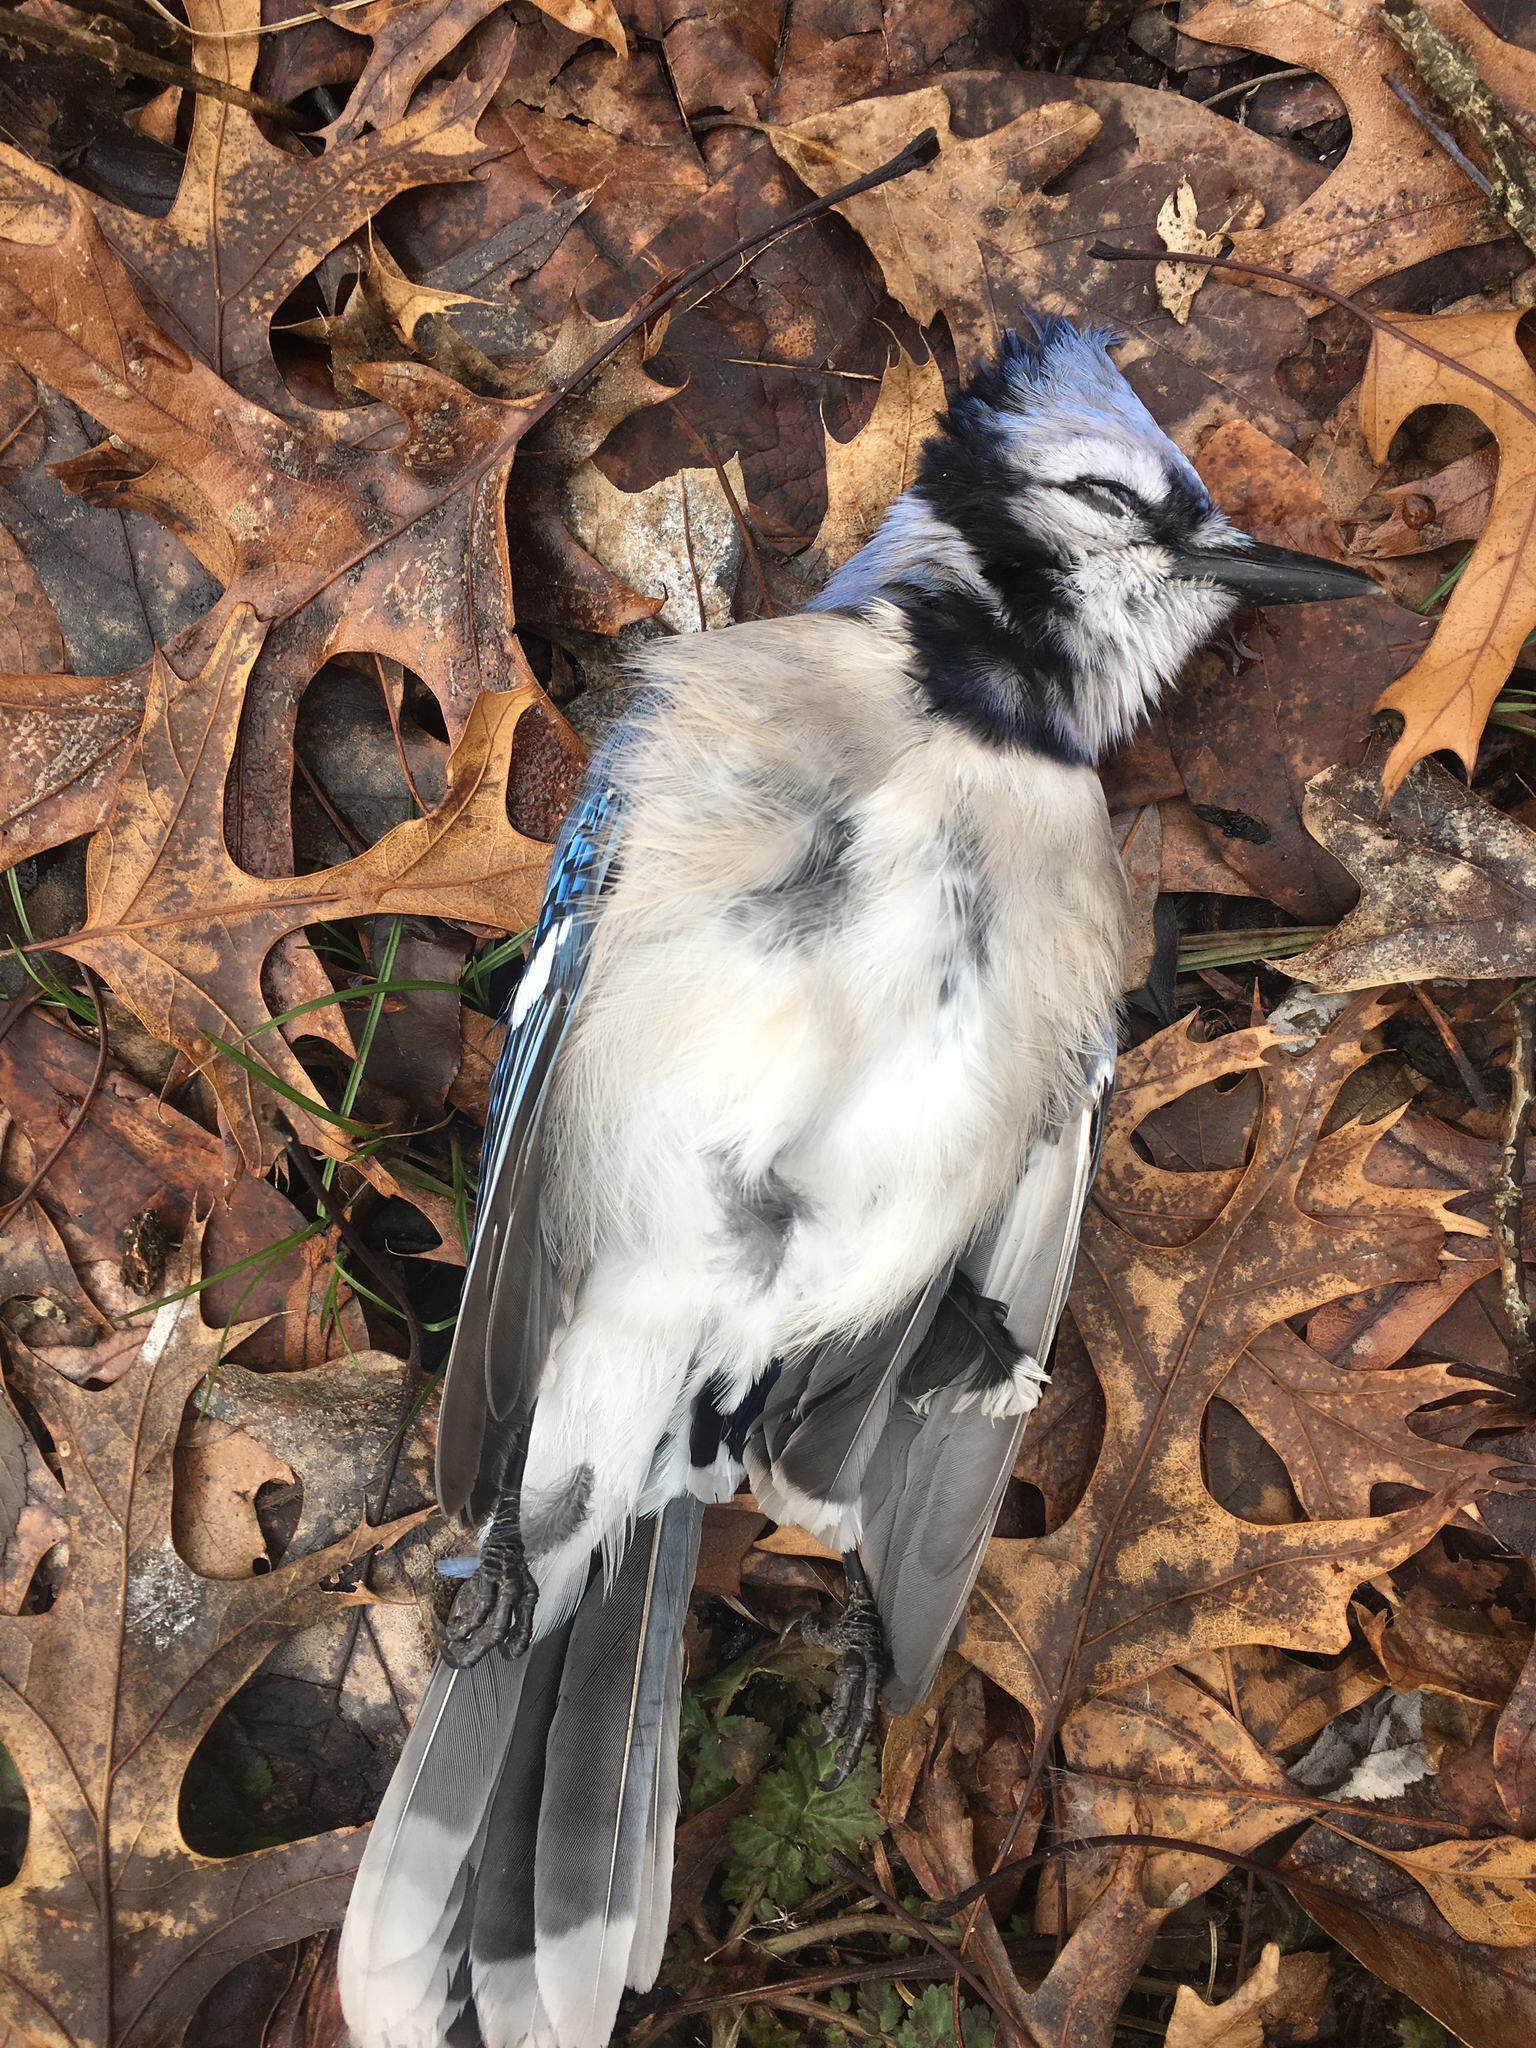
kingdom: Animalia
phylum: Chordata
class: Aves
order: Passeriformes
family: Corvidae
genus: Cyanocitta
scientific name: Cyanocitta cristata
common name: Blue jay
